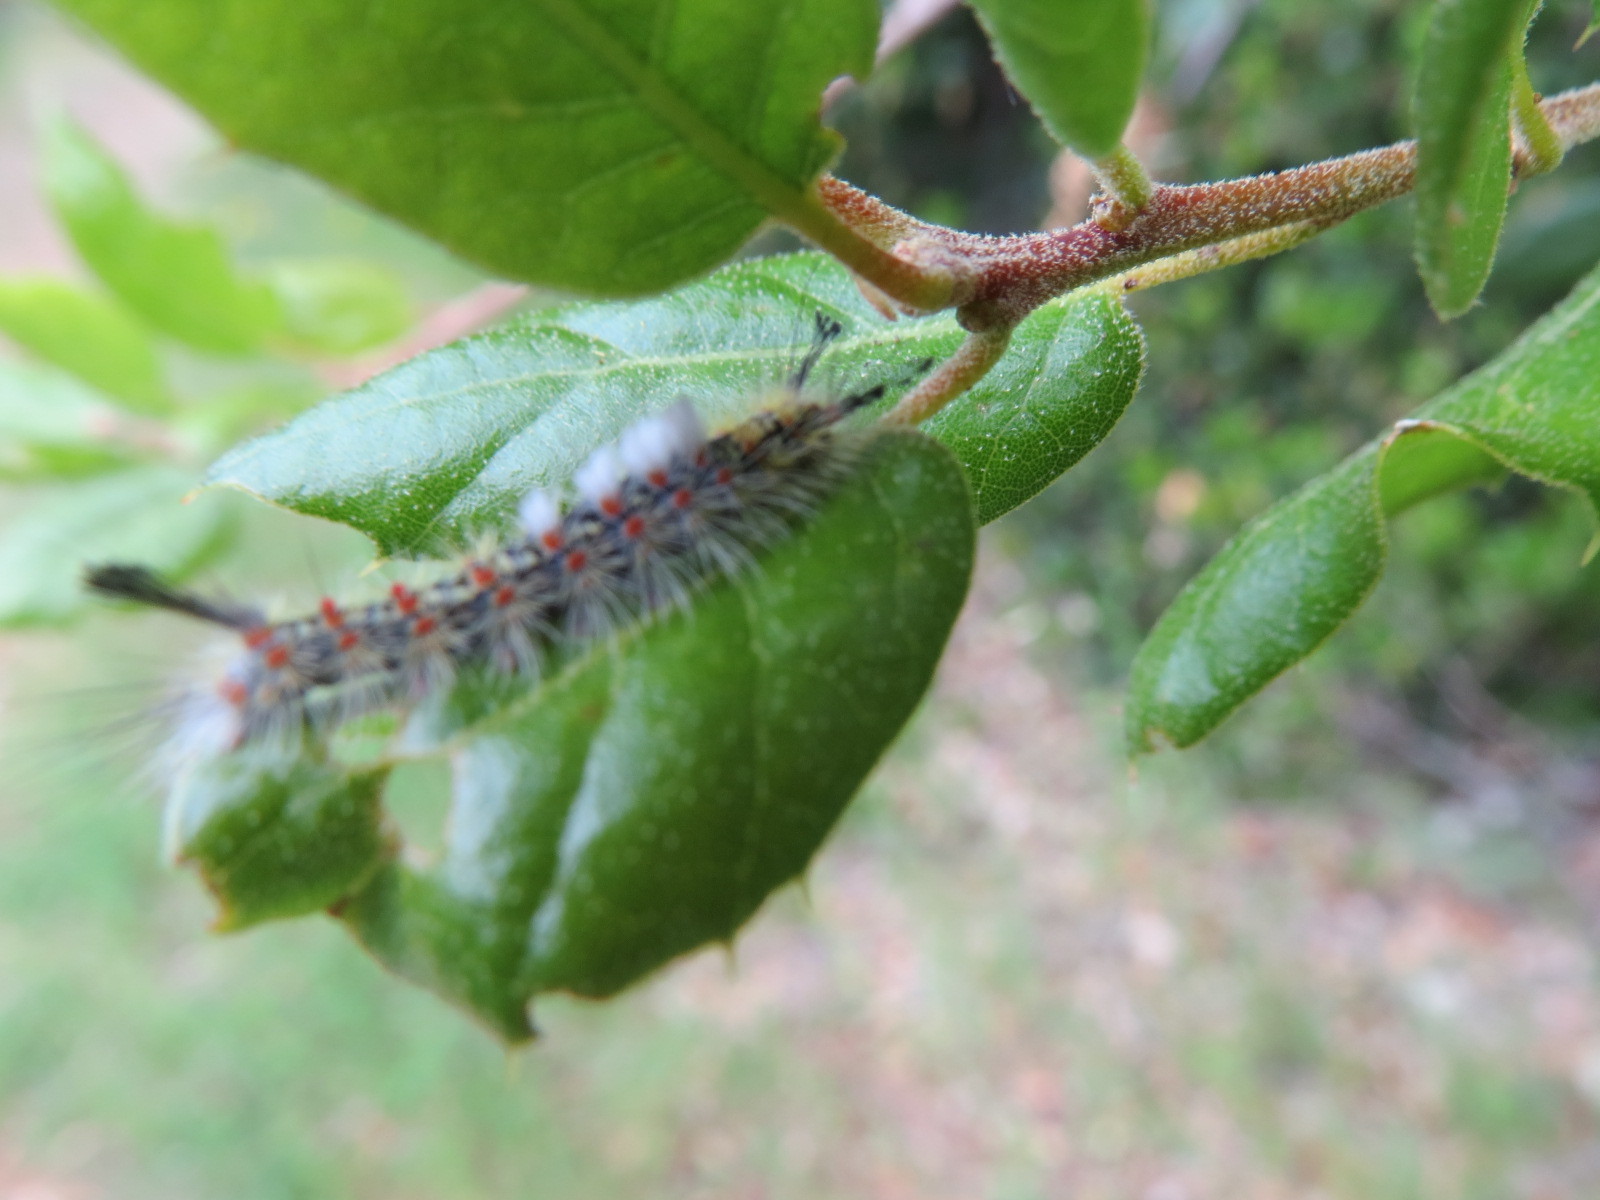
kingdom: Animalia
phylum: Arthropoda
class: Insecta
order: Lepidoptera
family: Erebidae
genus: Orgyia
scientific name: Orgyia vetusta
